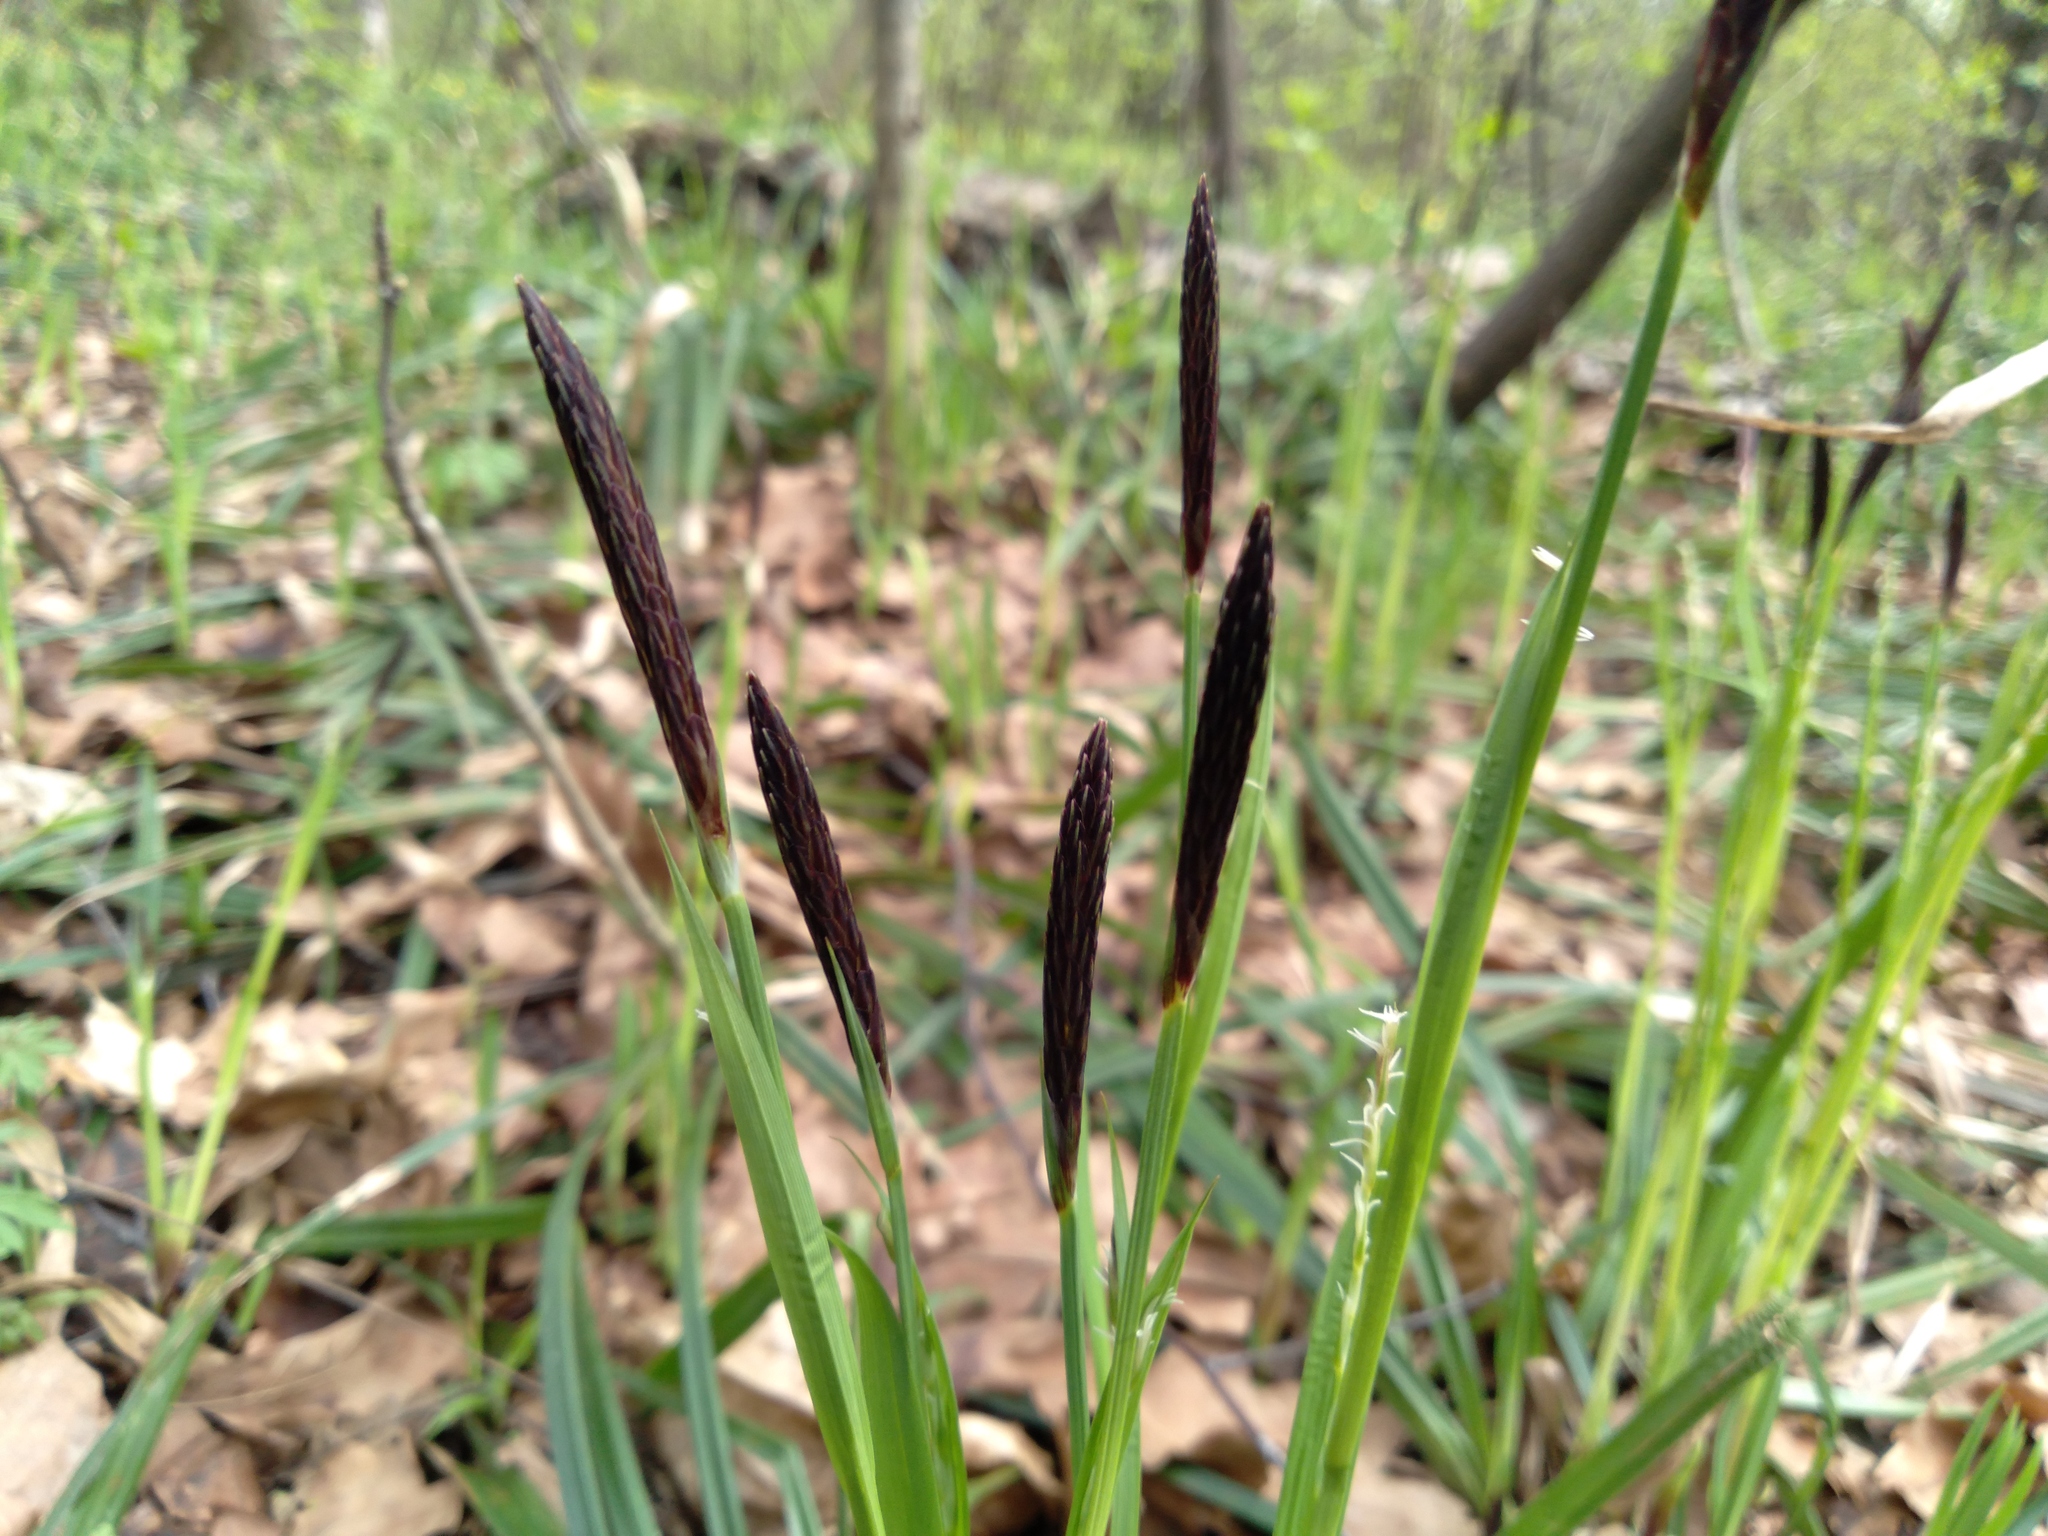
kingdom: Plantae
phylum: Tracheophyta
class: Liliopsida
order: Poales
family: Cyperaceae
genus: Carex
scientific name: Carex pilosa
